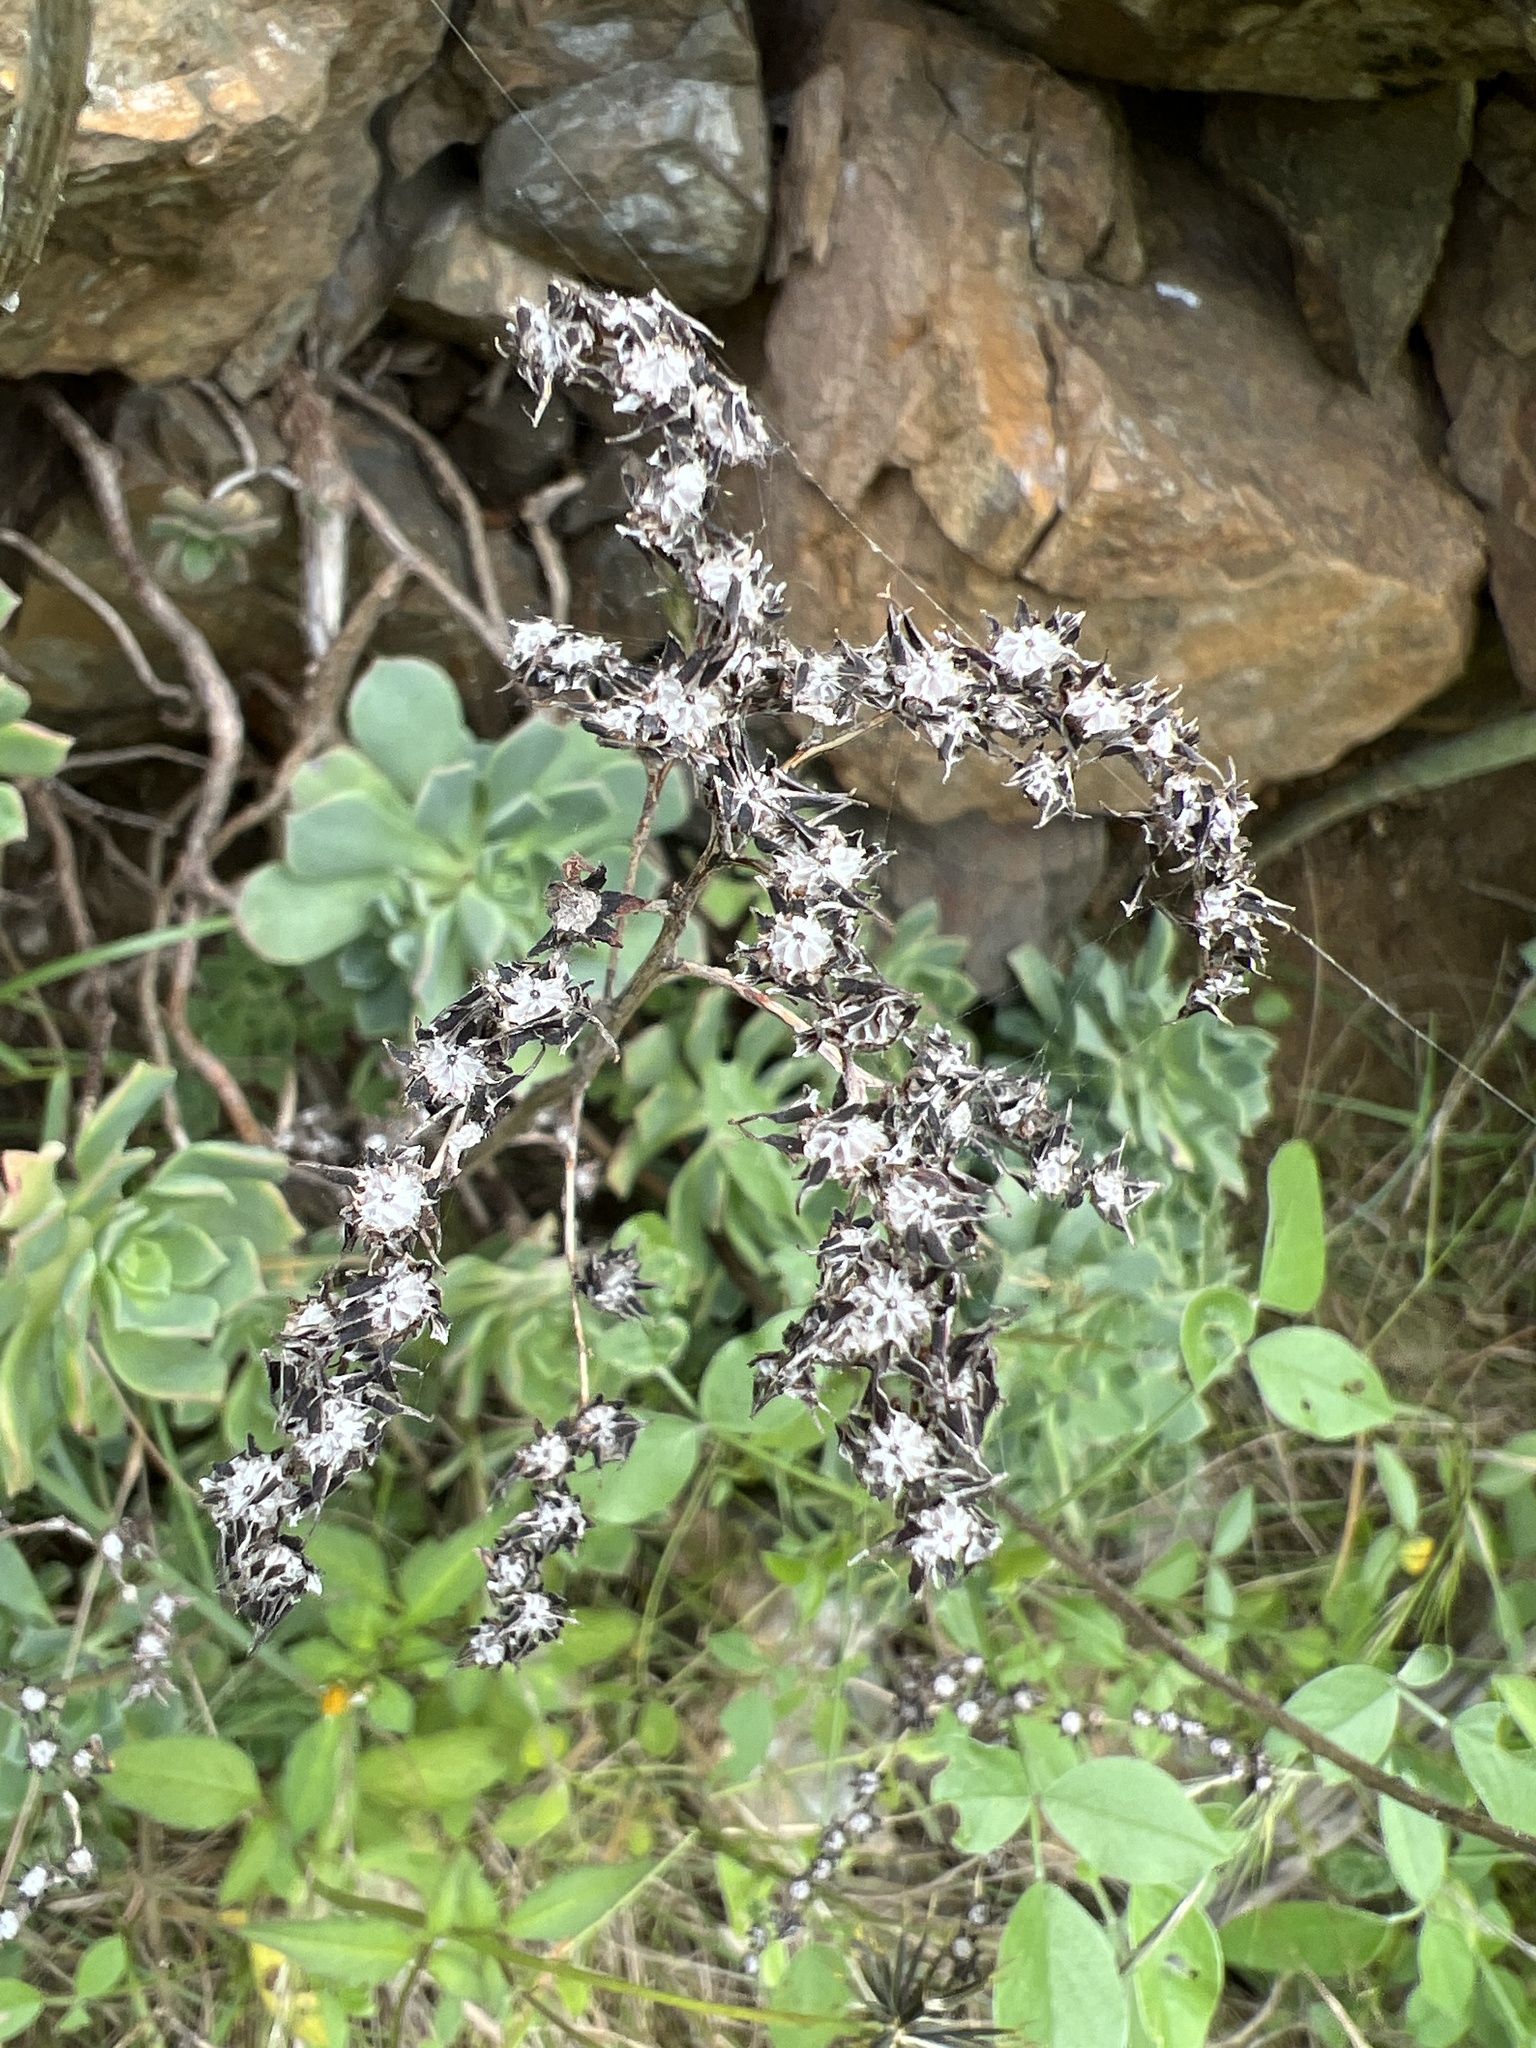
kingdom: Plantae
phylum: Tracheophyta
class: Magnoliopsida
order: Saxifragales
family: Crassulaceae
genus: Aeonium
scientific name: Aeonium castello-paivae
